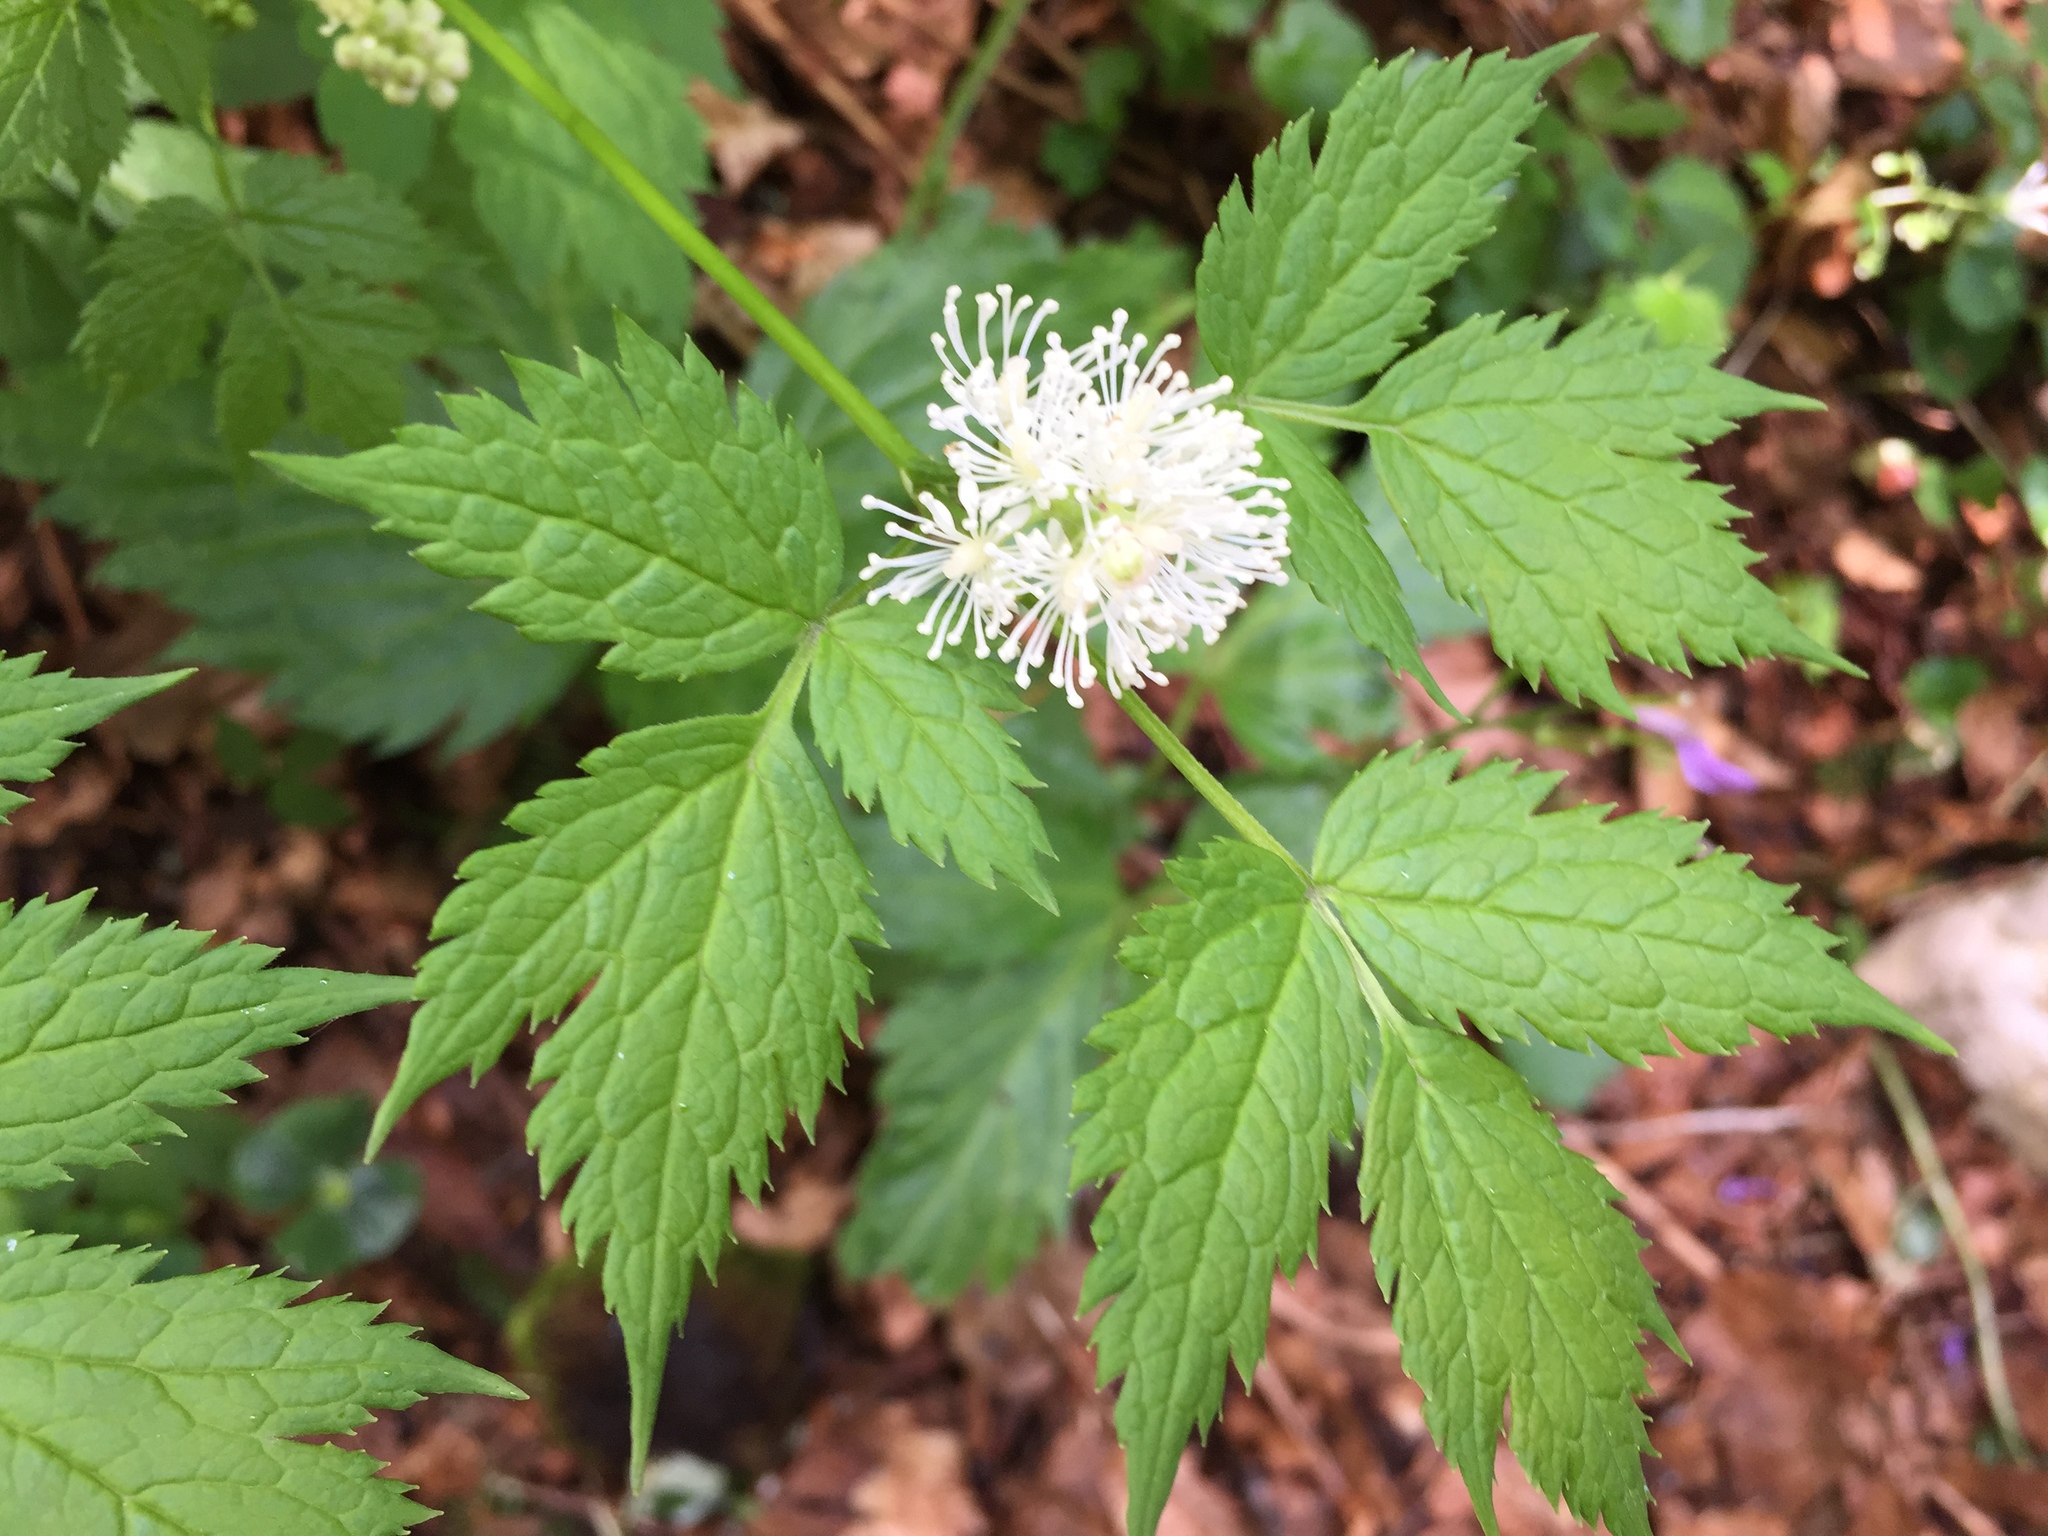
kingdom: Plantae
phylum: Tracheophyta
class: Magnoliopsida
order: Ranunculales
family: Ranunculaceae
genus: Actaea
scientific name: Actaea spicata
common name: Baneberry
